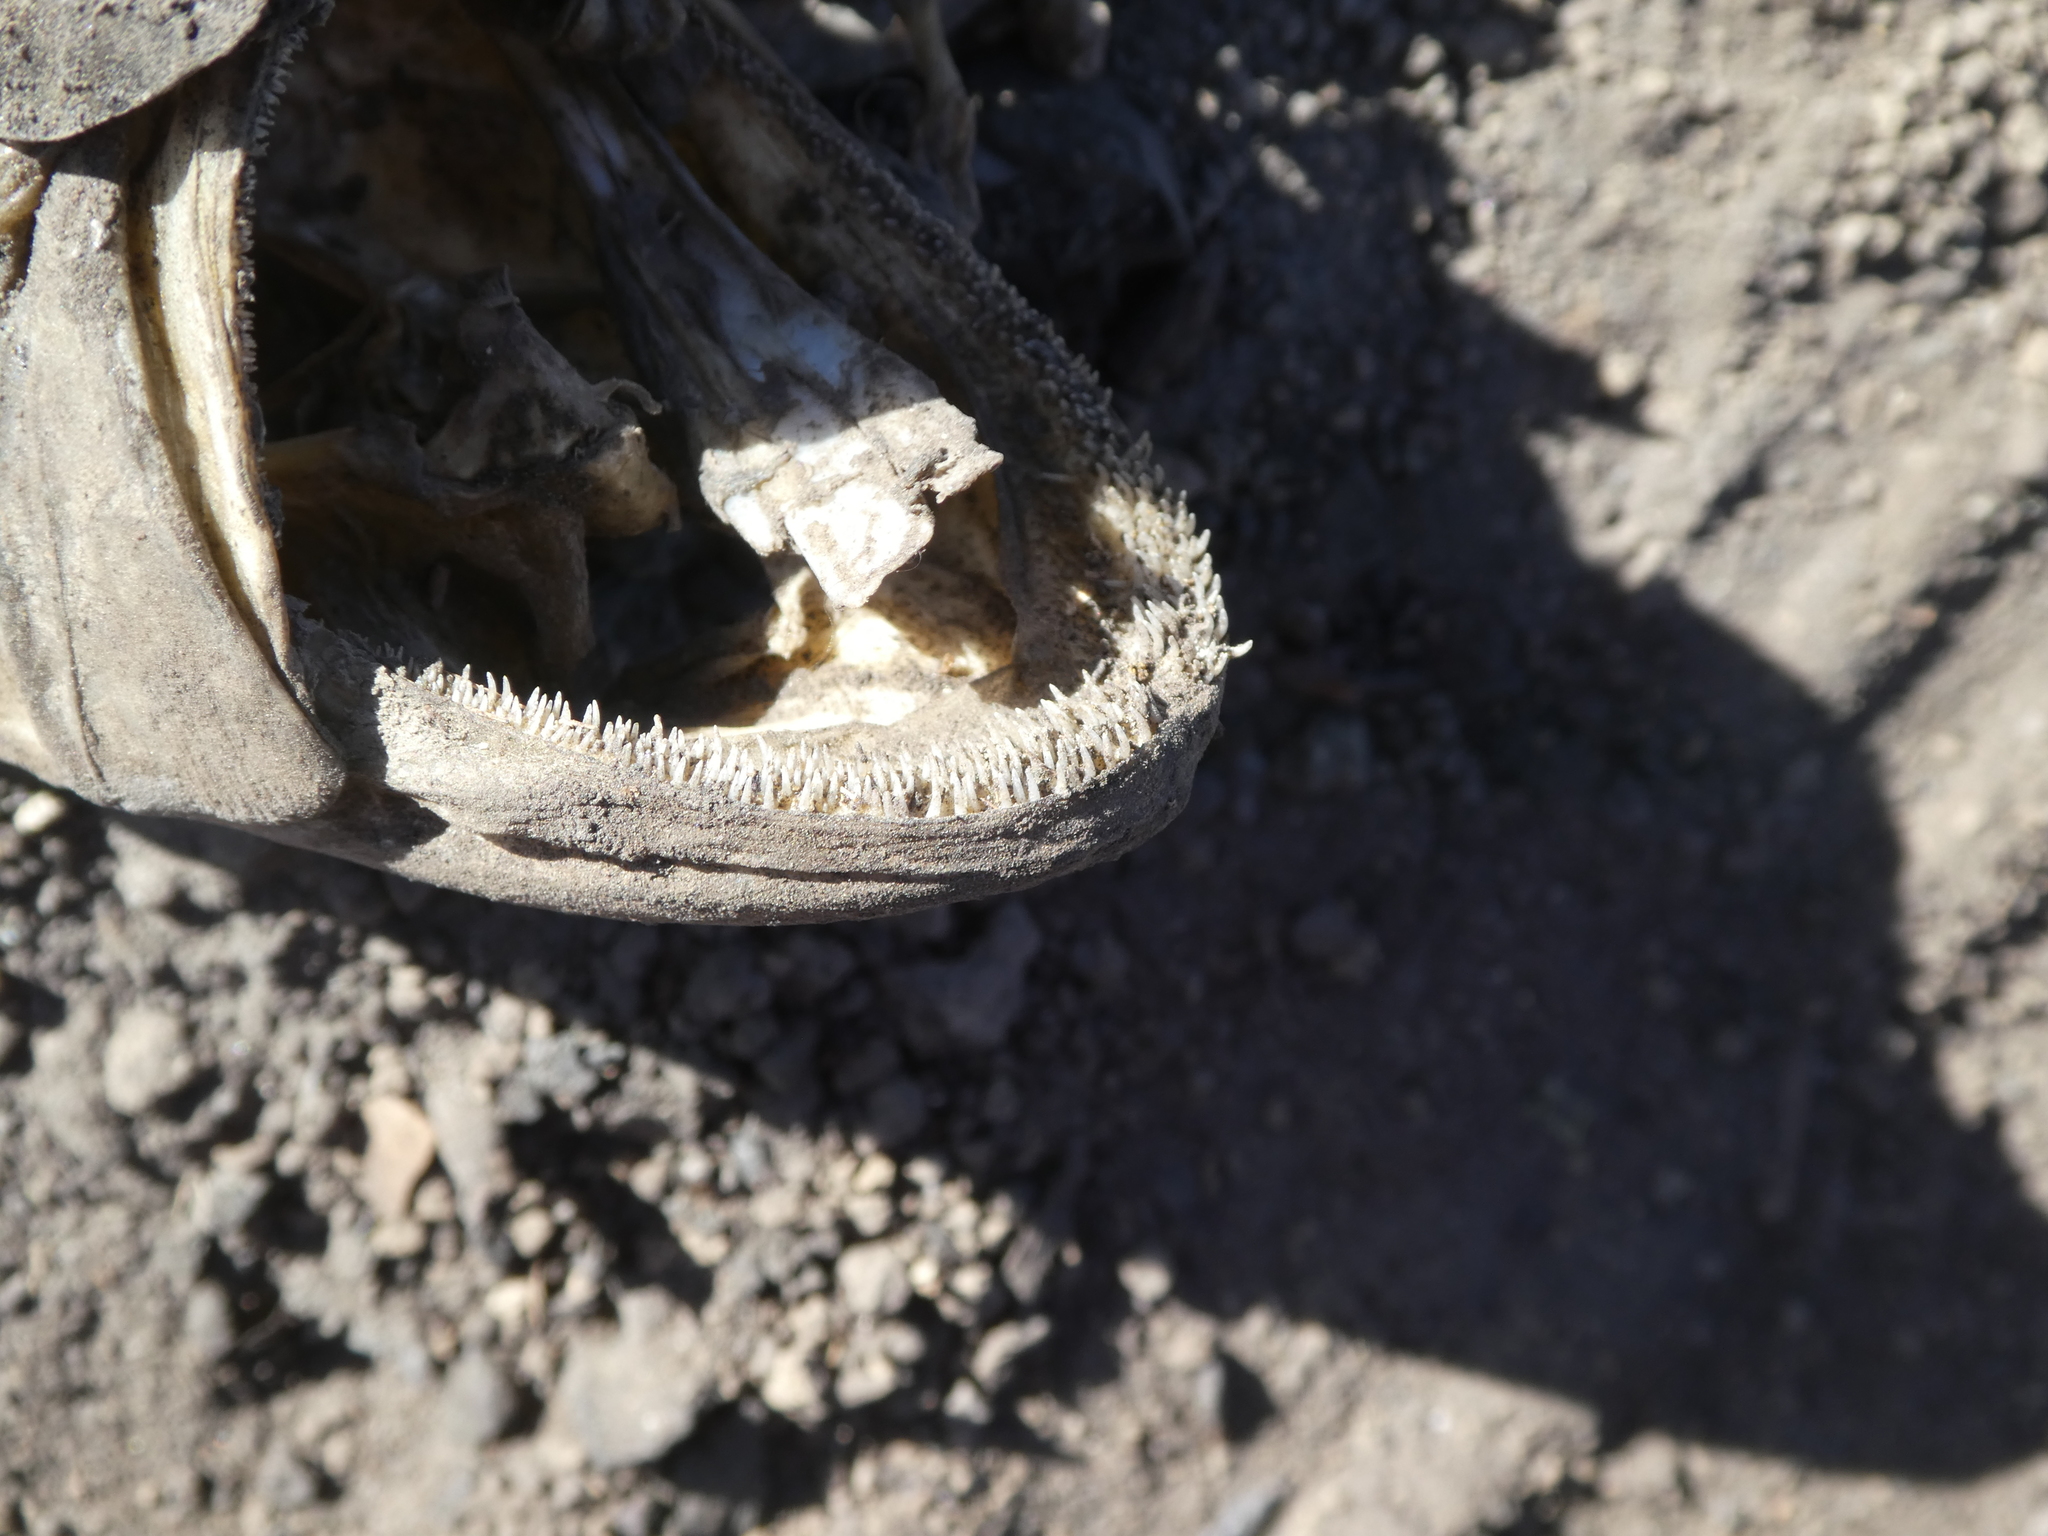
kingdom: Animalia
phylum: Chordata
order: Perciformes
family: Centrarchidae
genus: Micropterus
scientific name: Micropterus
